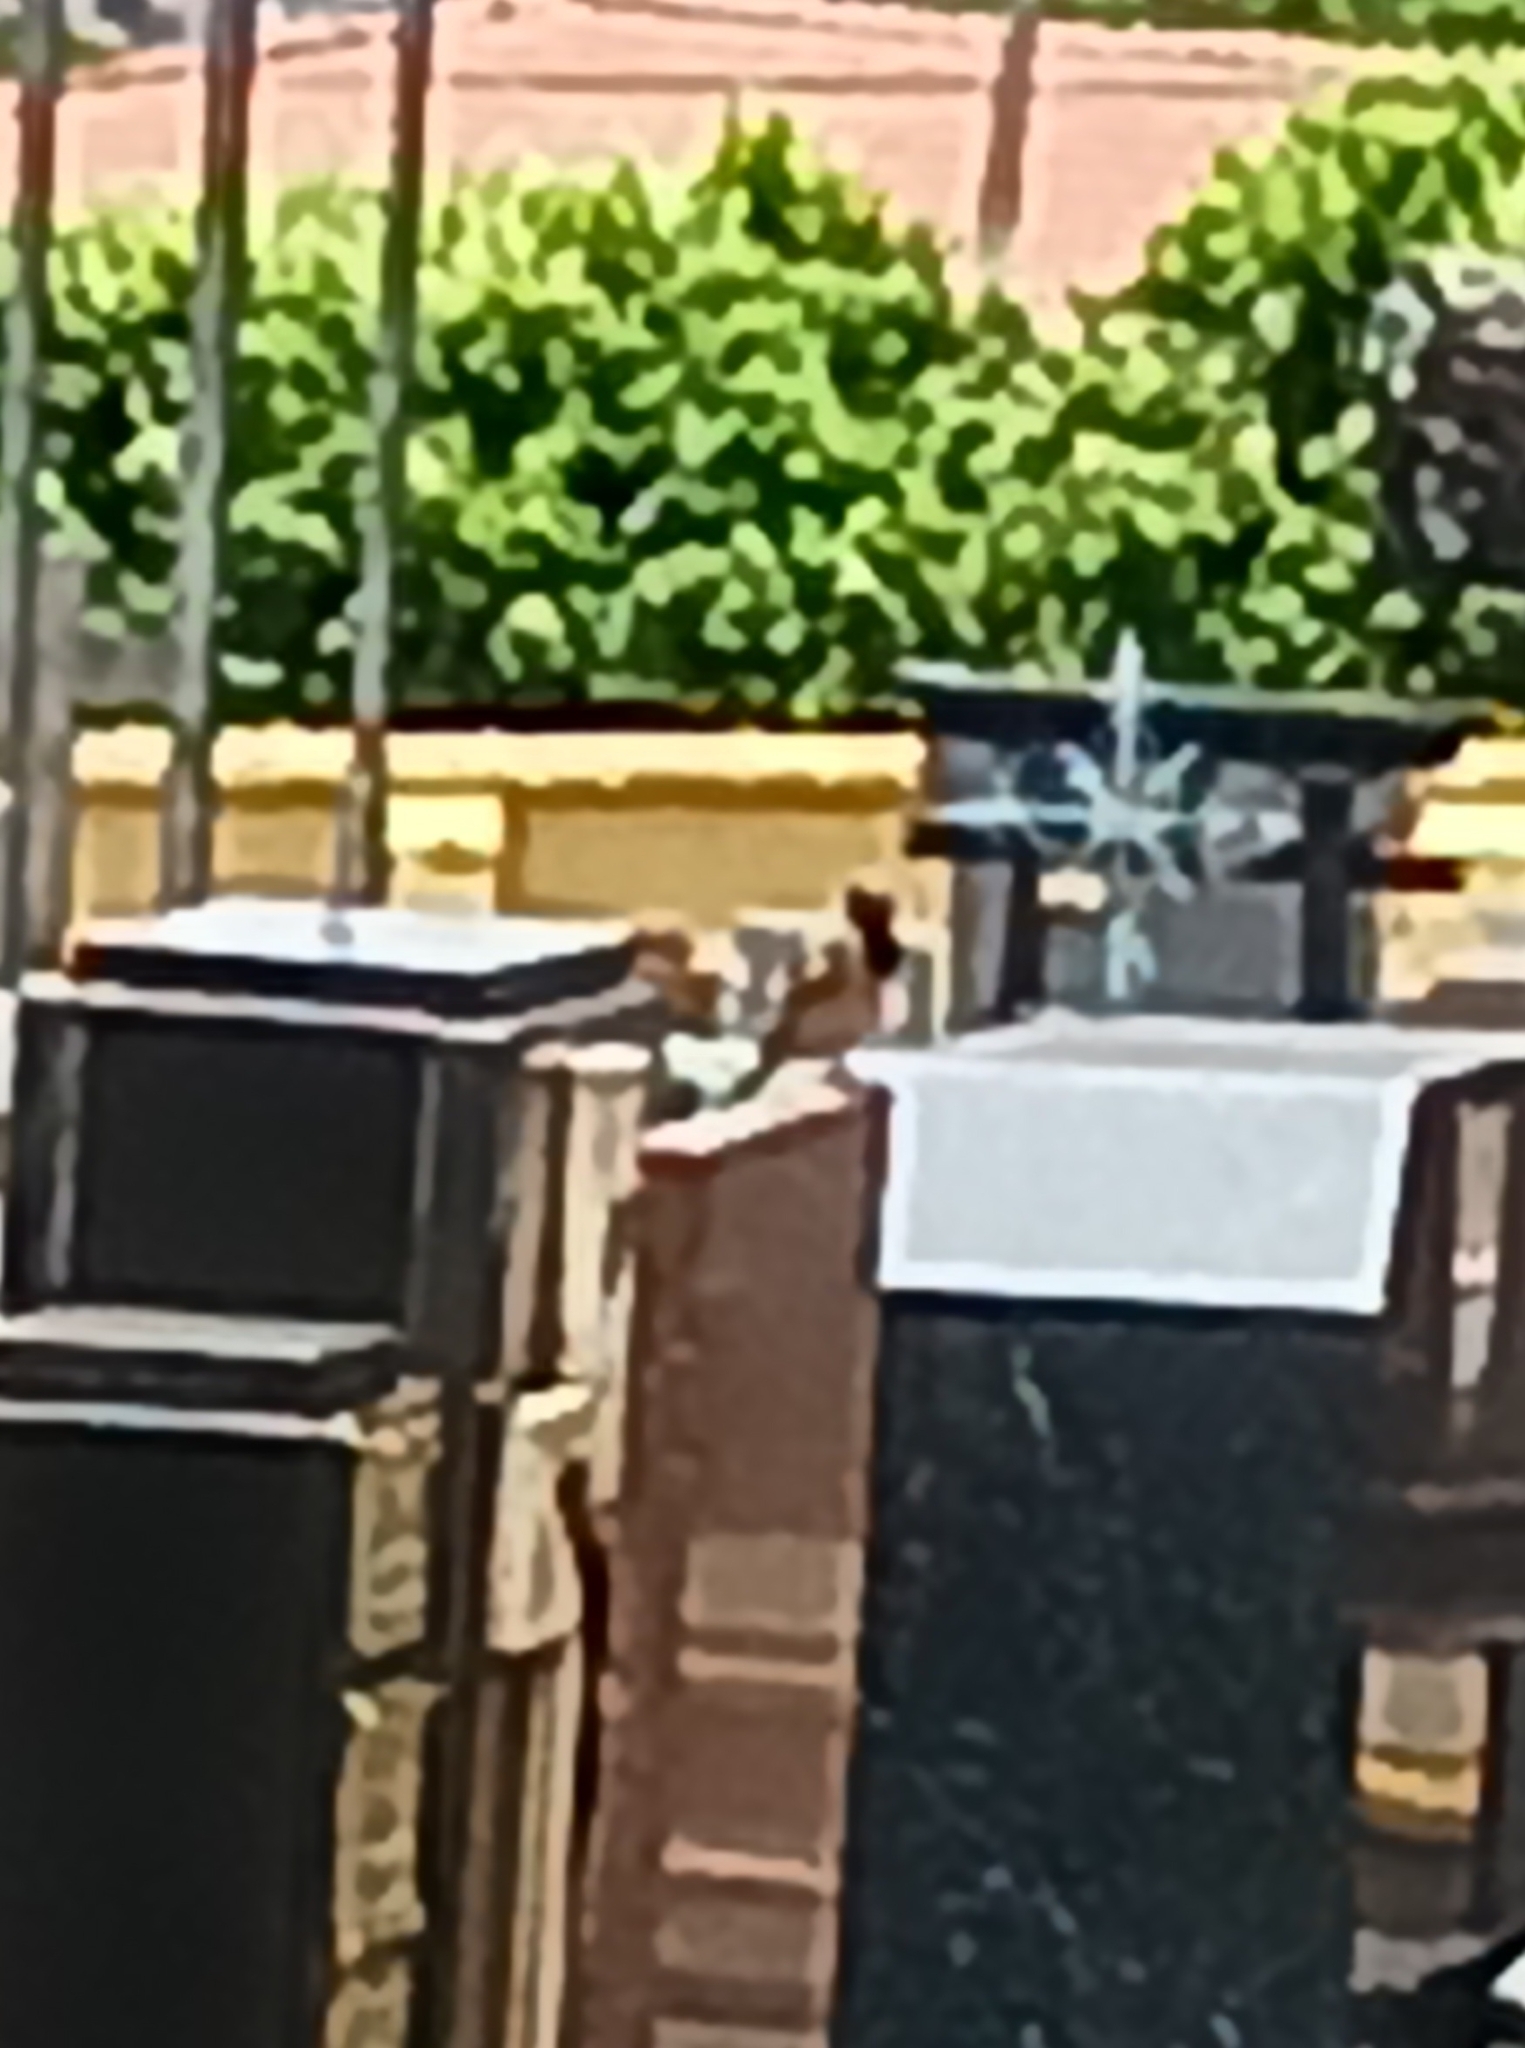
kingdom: Animalia
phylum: Chordata
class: Aves
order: Passeriformes
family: Passeridae
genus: Passer
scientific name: Passer domesticus
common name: House sparrow
